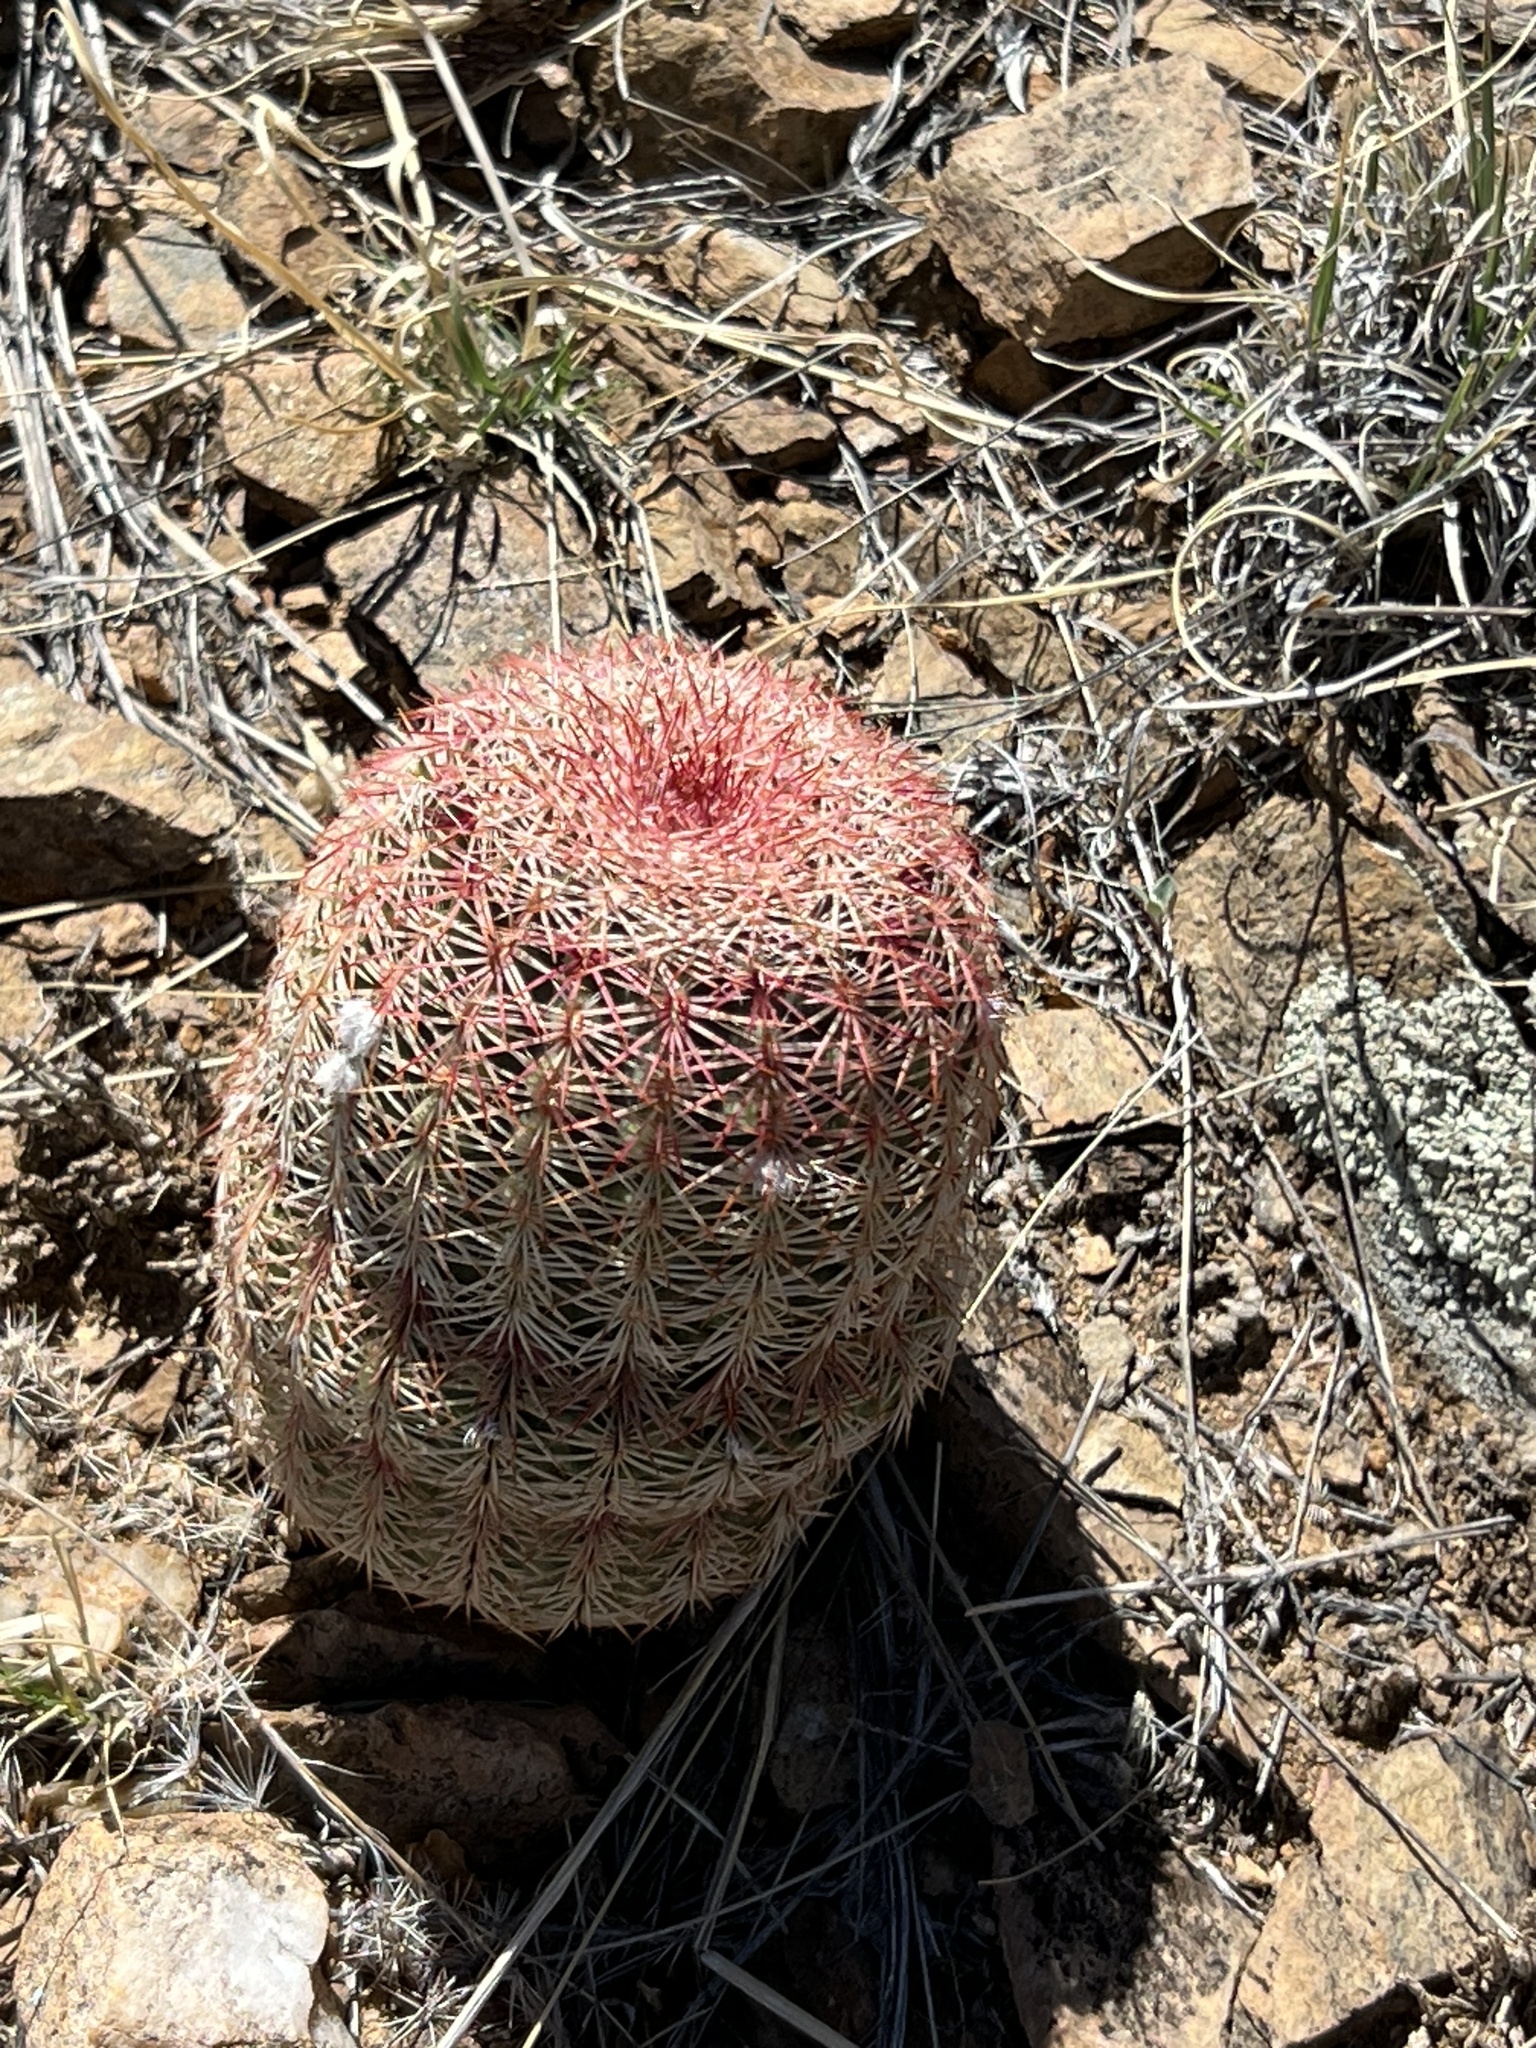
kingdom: Plantae
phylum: Tracheophyta
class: Magnoliopsida
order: Caryophyllales
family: Cactaceae
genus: Echinocereus
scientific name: Echinocereus rigidissimus
